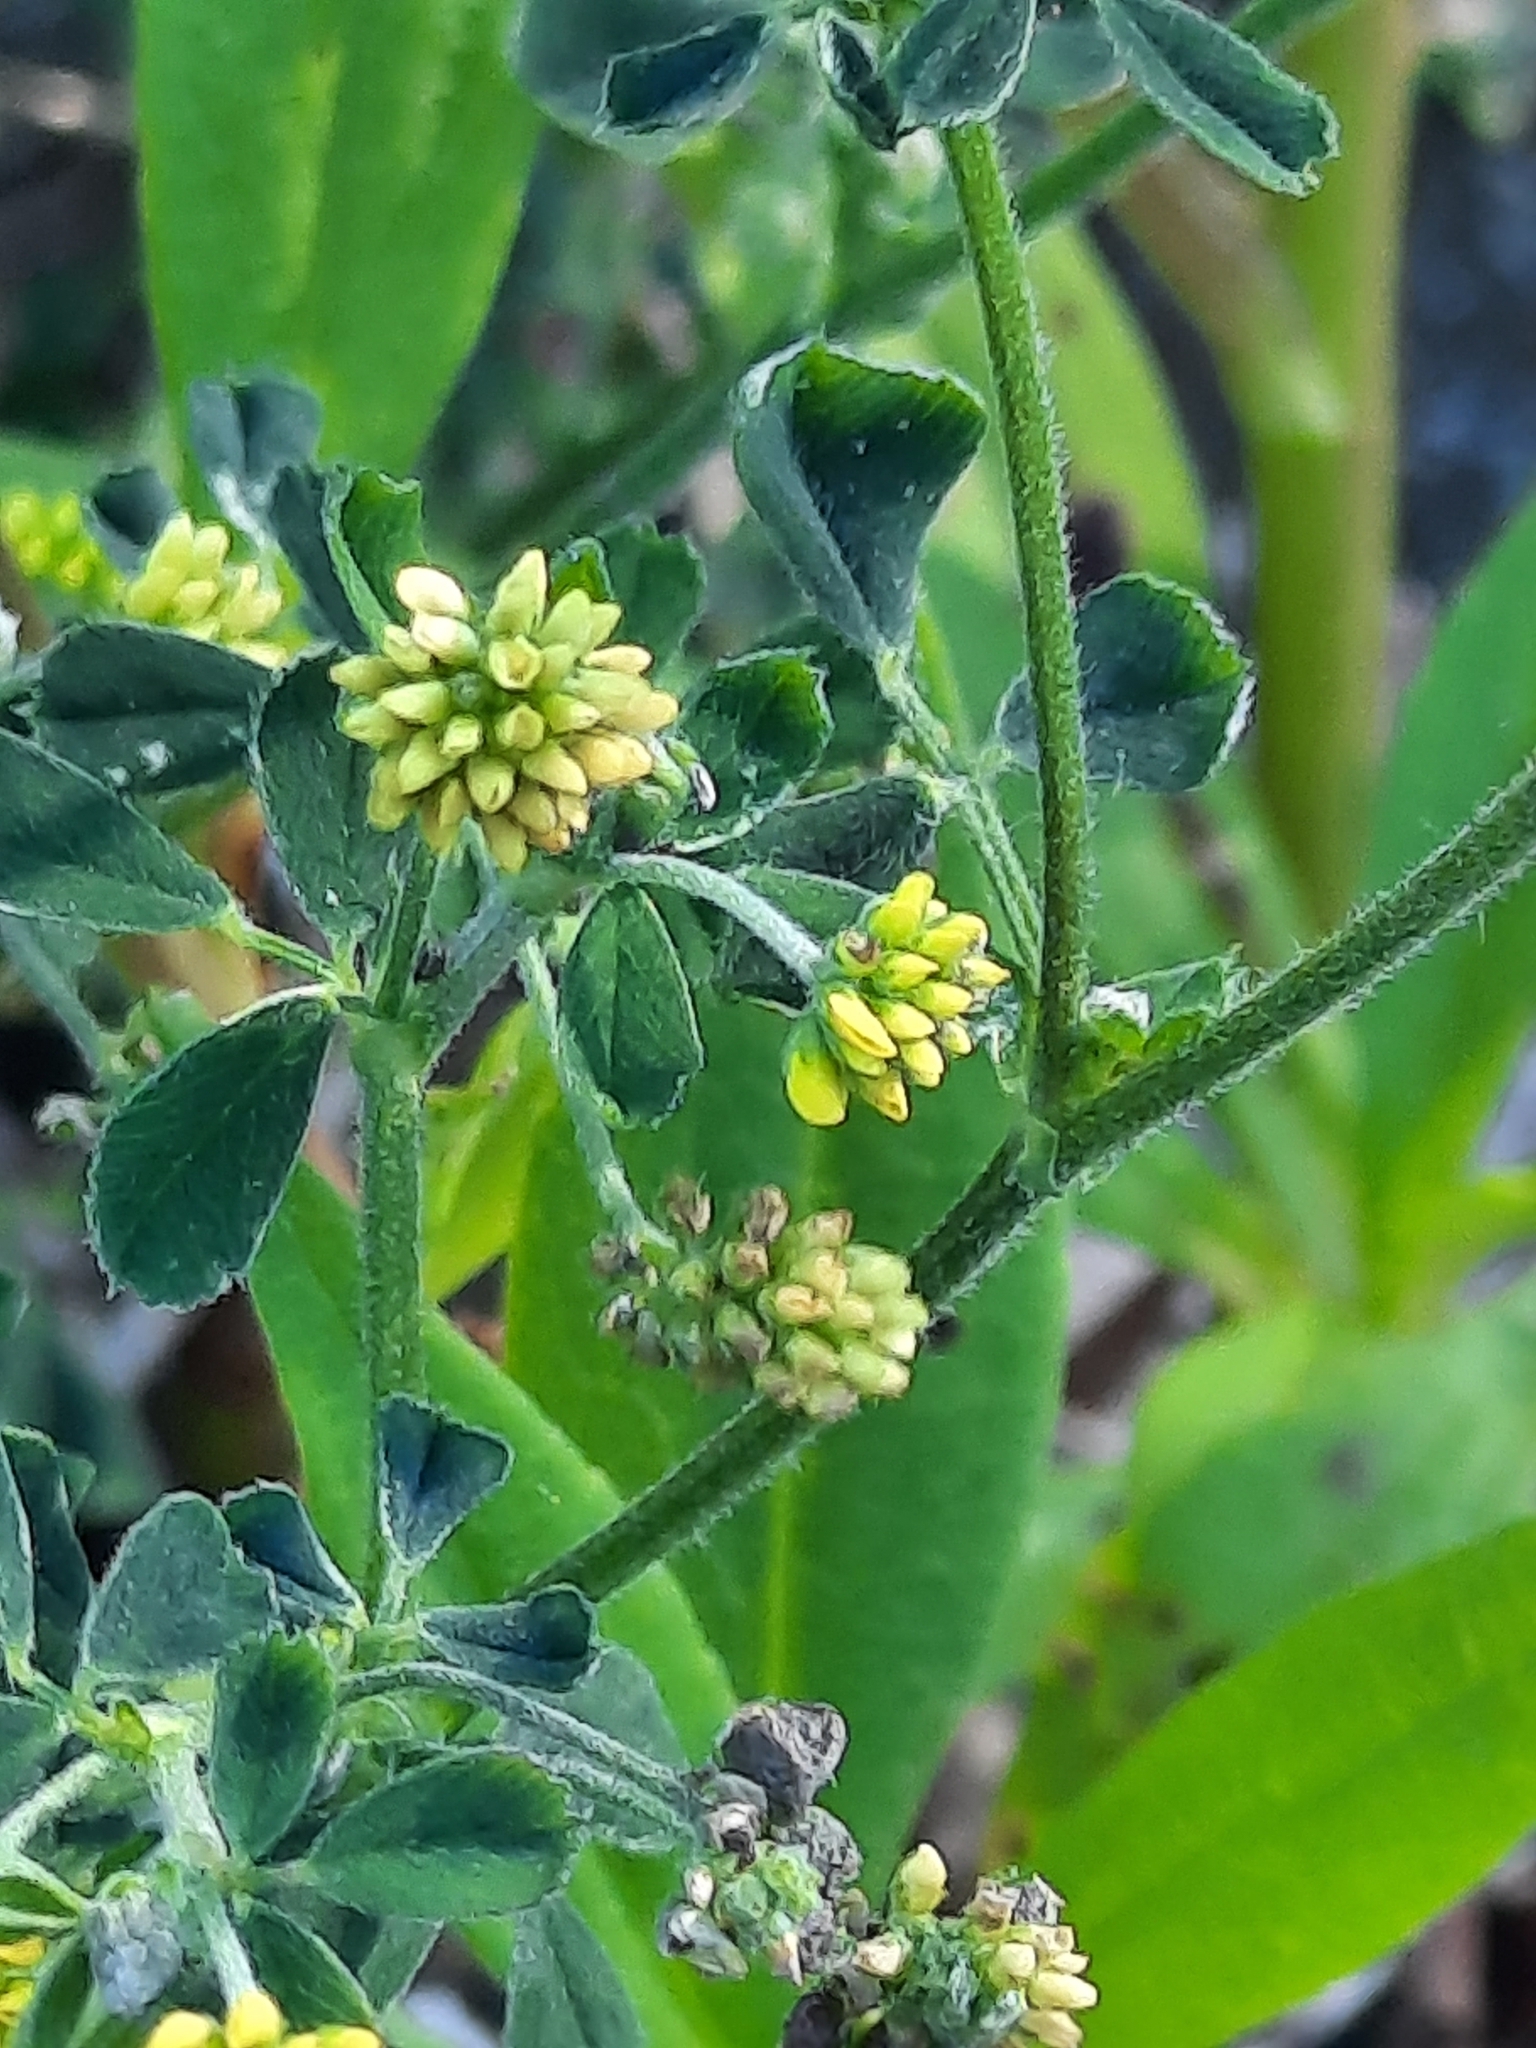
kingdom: Plantae
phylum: Tracheophyta
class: Magnoliopsida
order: Fabales
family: Fabaceae
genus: Medicago
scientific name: Medicago lupulina
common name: Black medick
